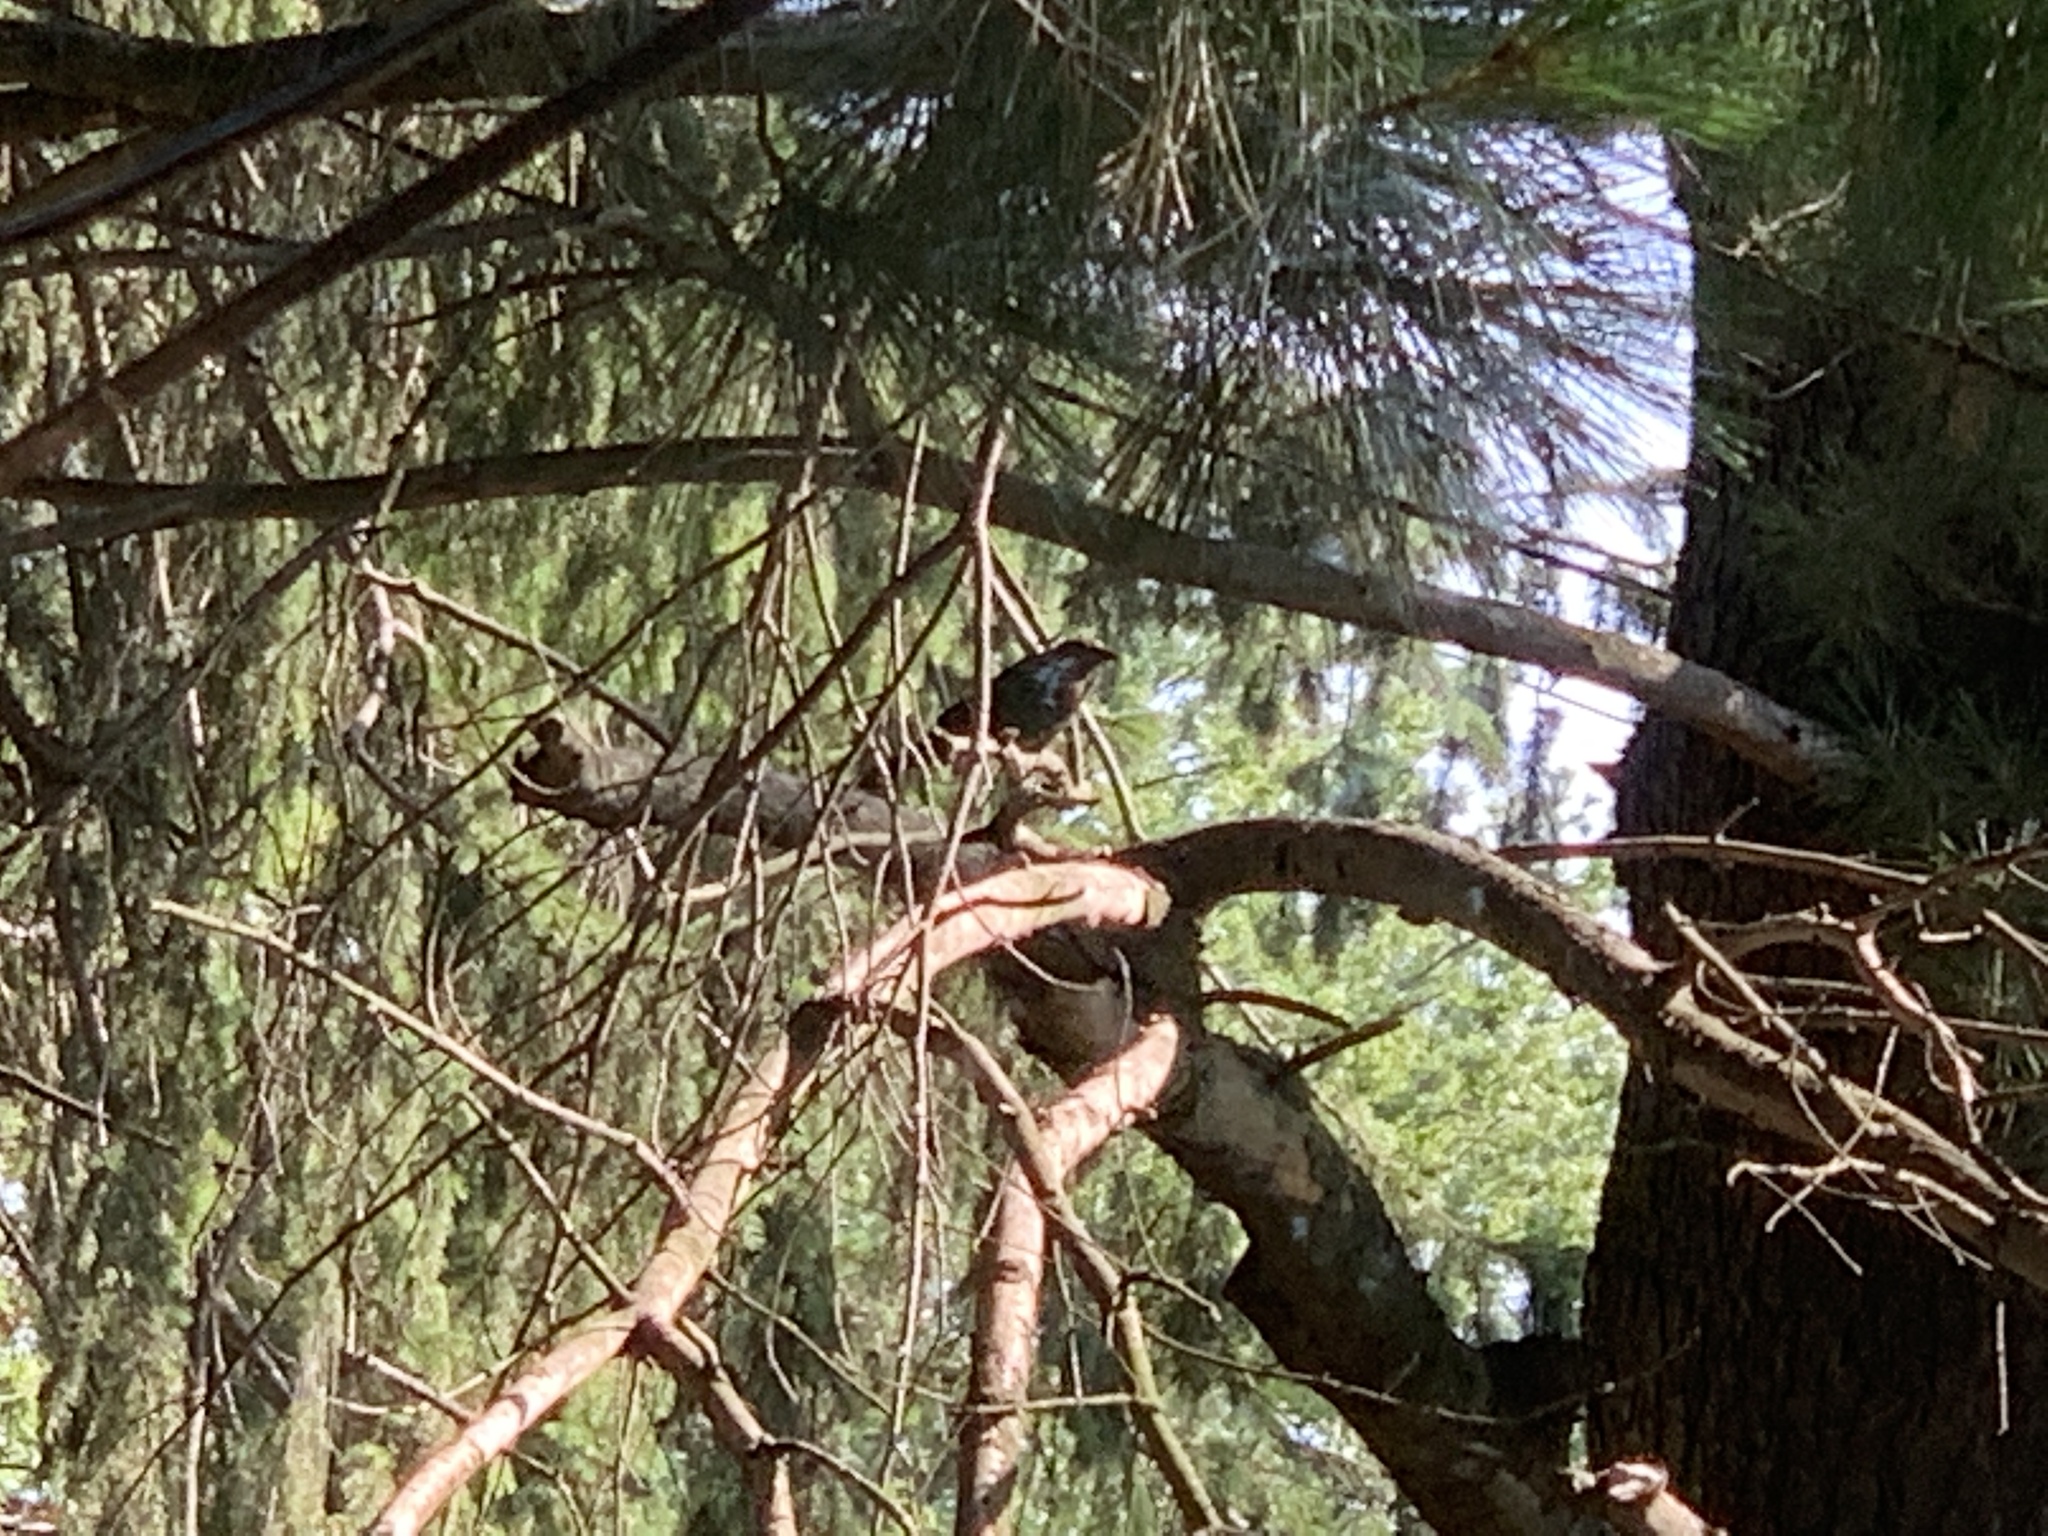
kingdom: Animalia
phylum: Chordata
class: Aves
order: Passeriformes
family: Icteridae
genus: Molothrus
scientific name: Molothrus ater
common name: Brown-headed cowbird
